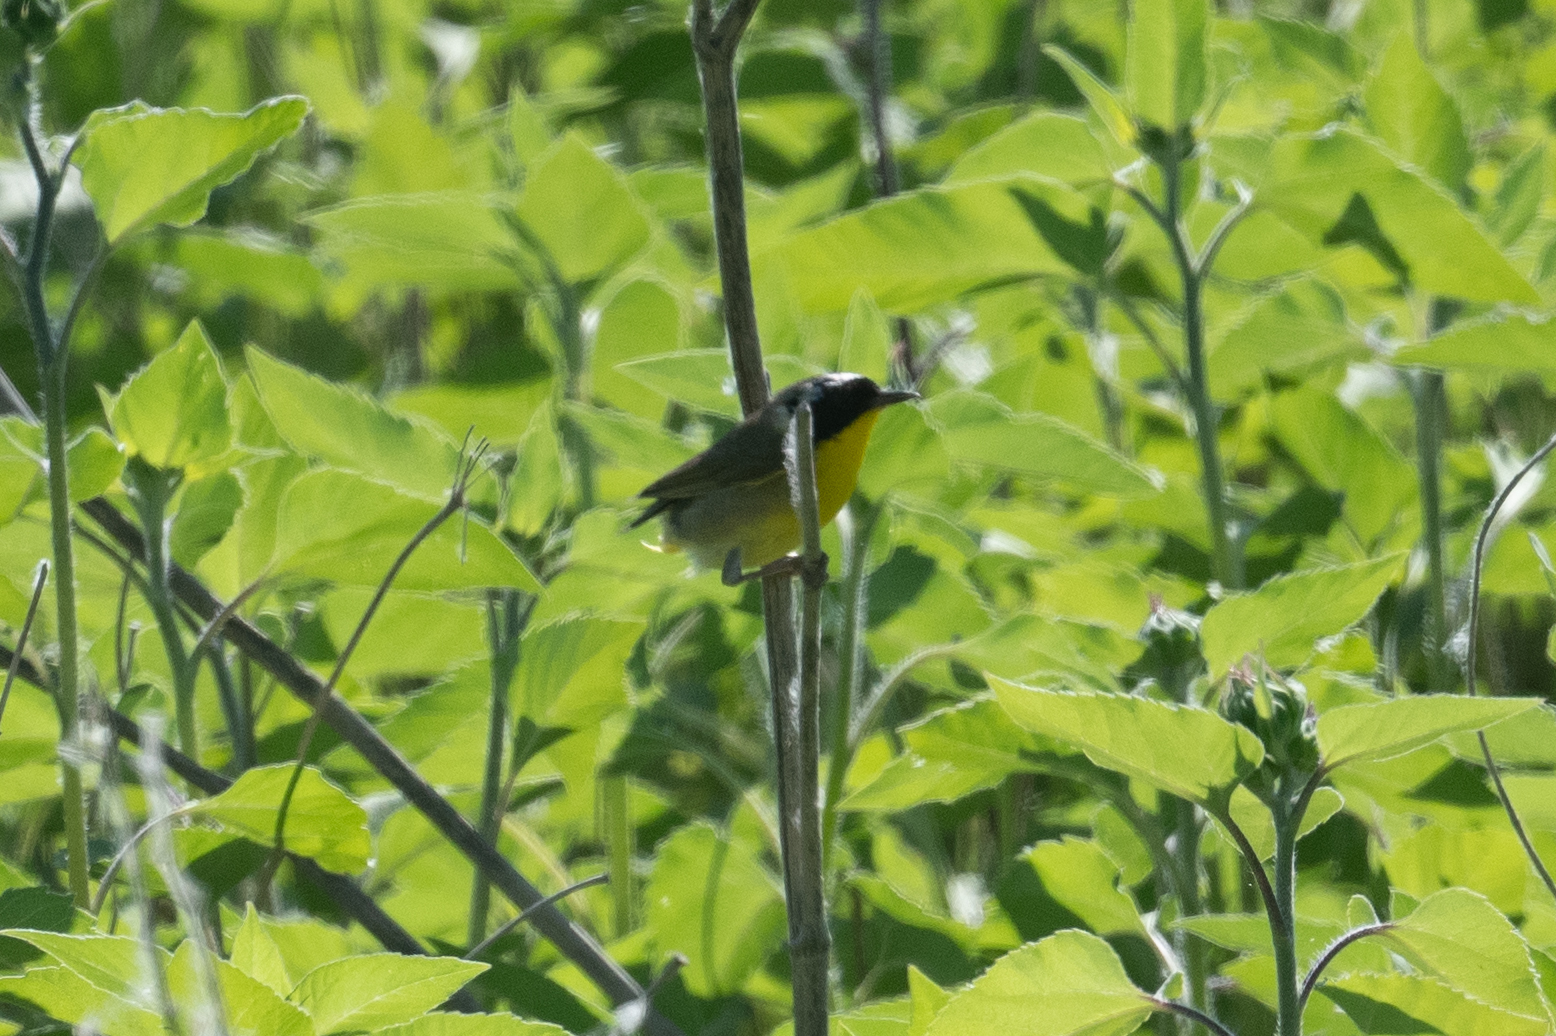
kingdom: Animalia
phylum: Chordata
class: Aves
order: Passeriformes
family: Parulidae
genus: Geothlypis
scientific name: Geothlypis trichas
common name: Common yellowthroat
